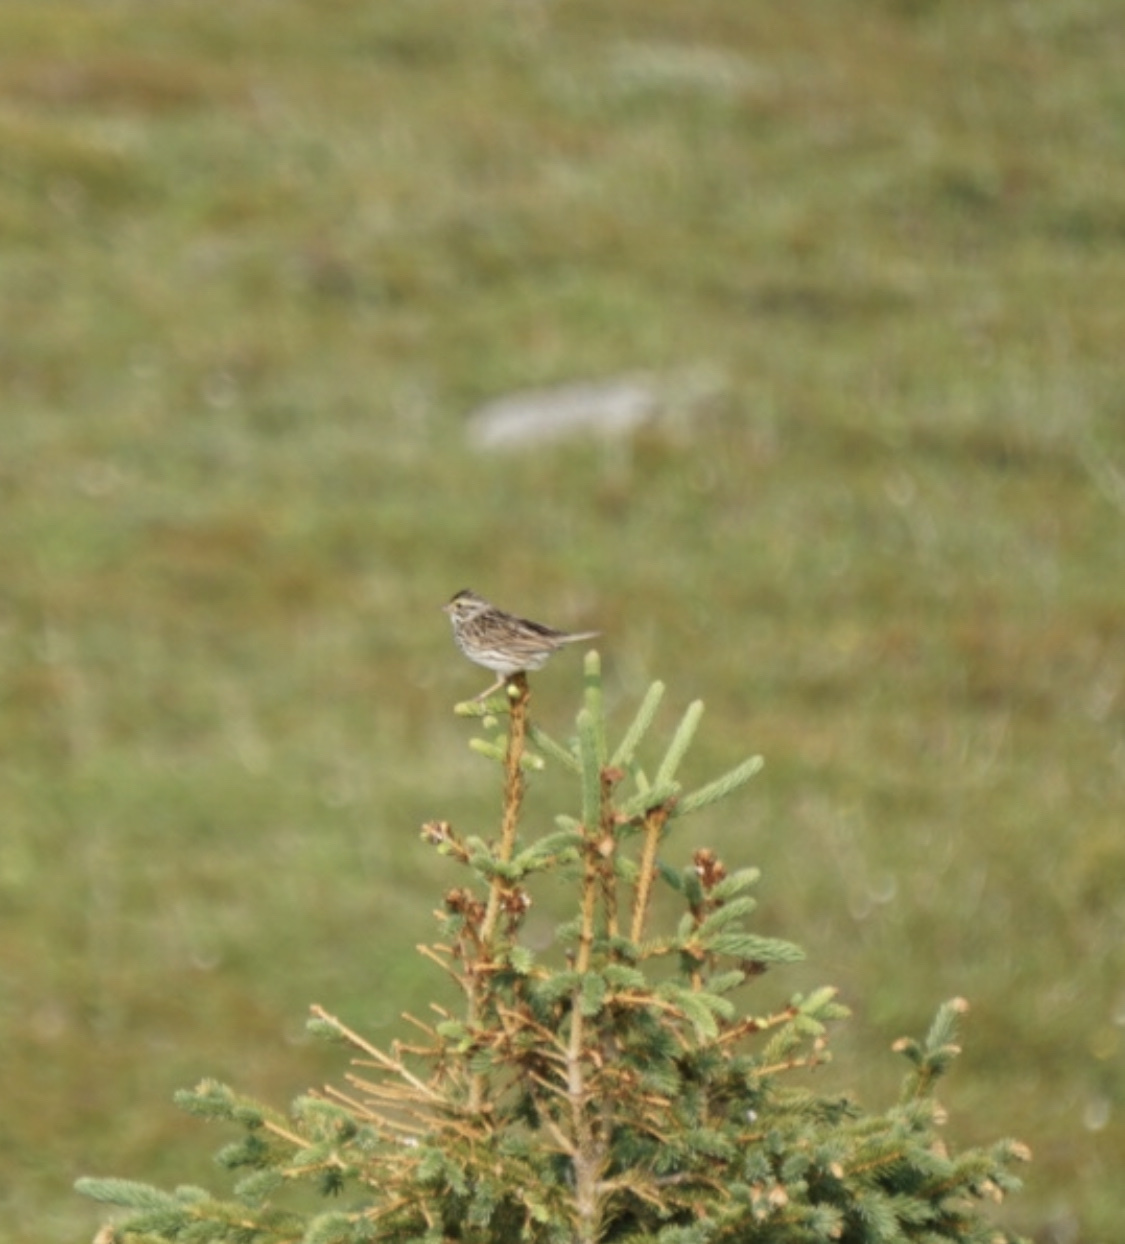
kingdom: Animalia
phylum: Chordata
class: Aves
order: Passeriformes
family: Passerellidae
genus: Passerculus
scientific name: Passerculus sandwichensis
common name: Savannah sparrow
